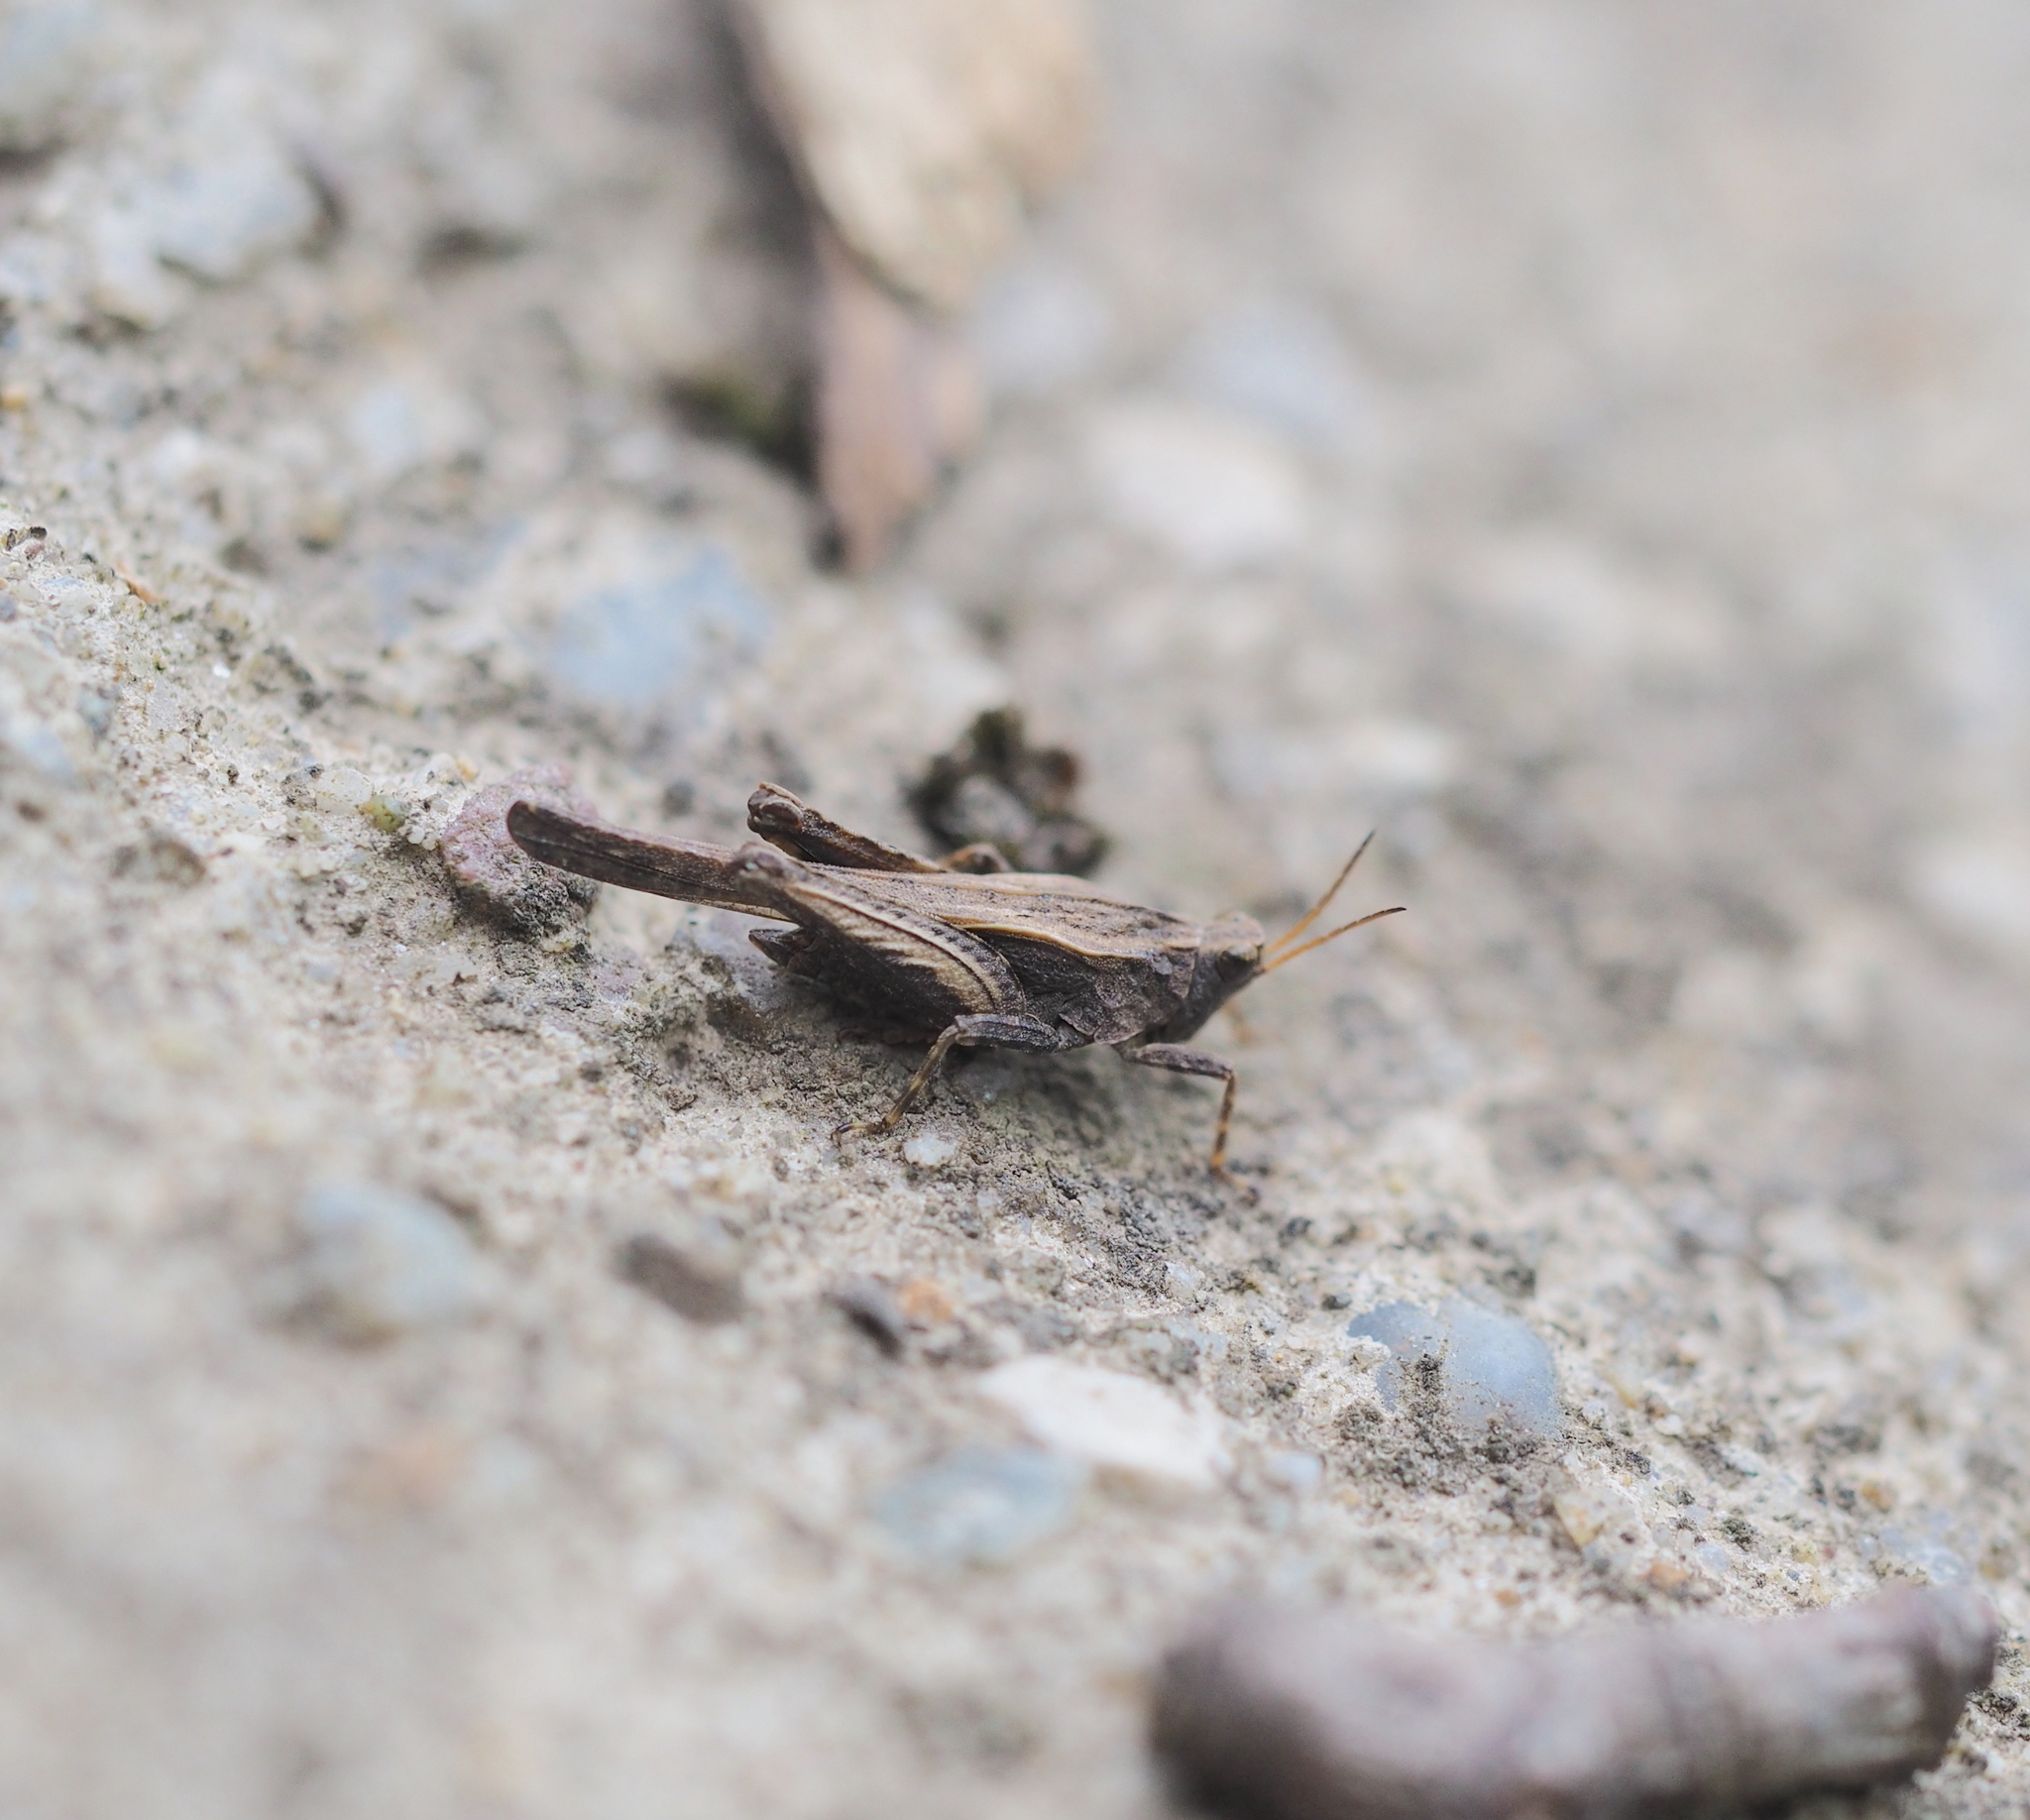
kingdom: Animalia
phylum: Arthropoda
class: Insecta
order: Orthoptera
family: Tetrigidae
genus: Tetrix
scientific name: Tetrix subulata
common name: Slender ground-hopper
